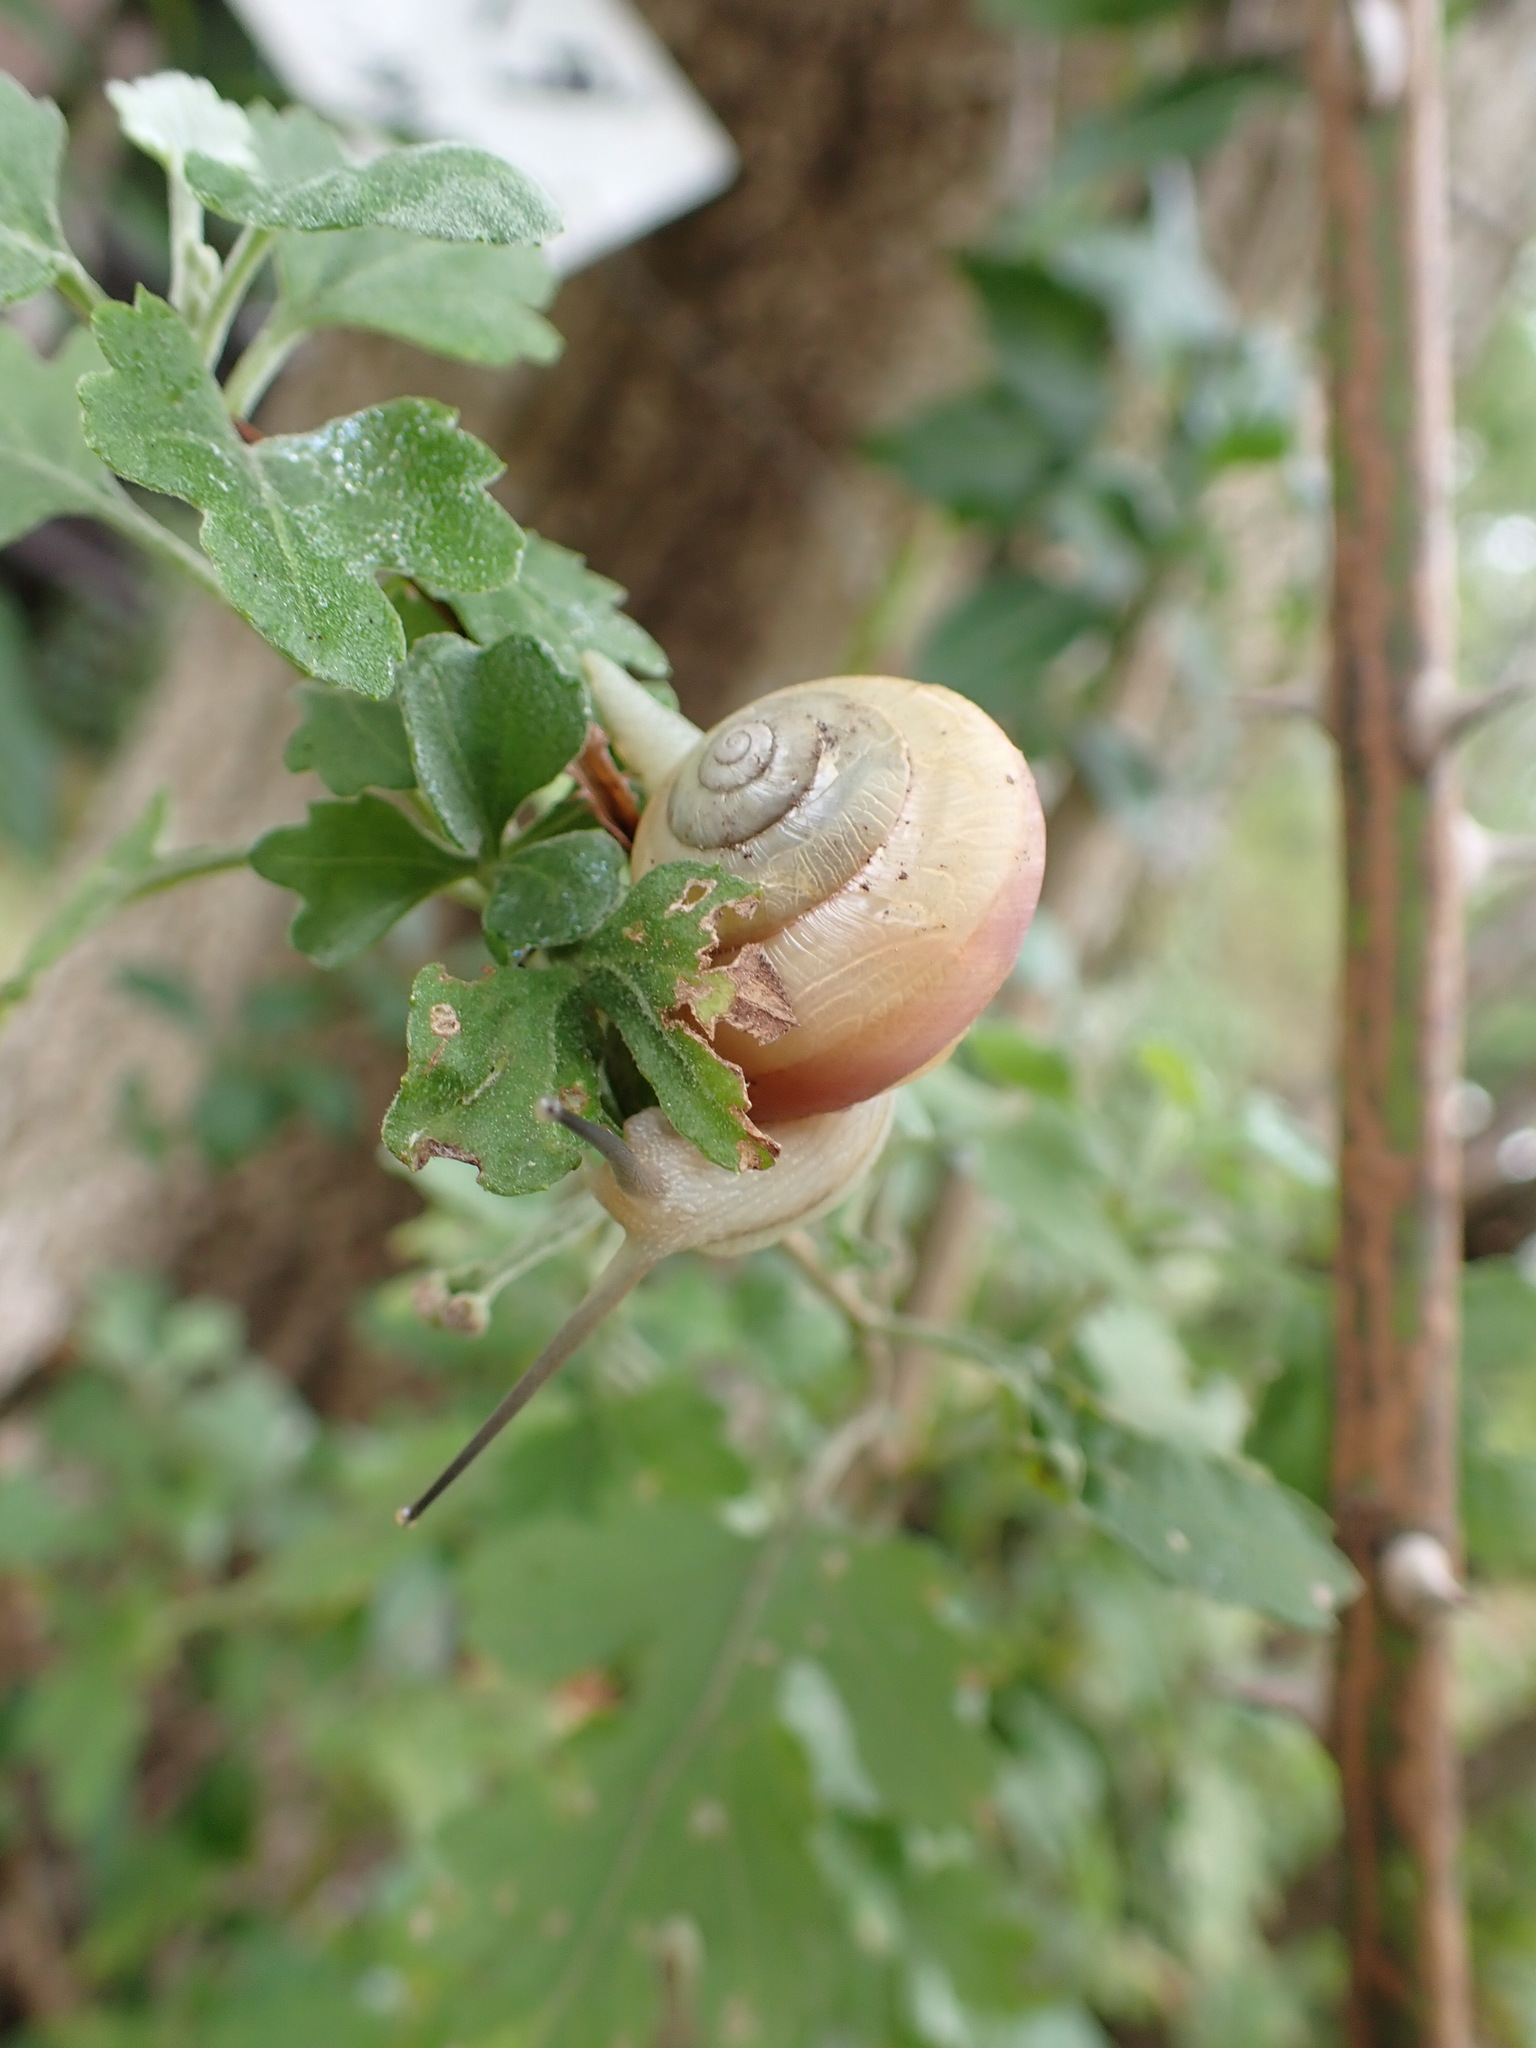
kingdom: Animalia
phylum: Mollusca
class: Gastropoda
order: Stylommatophora
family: Camaenidae
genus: Euhadra
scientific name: Euhadra amaliae
